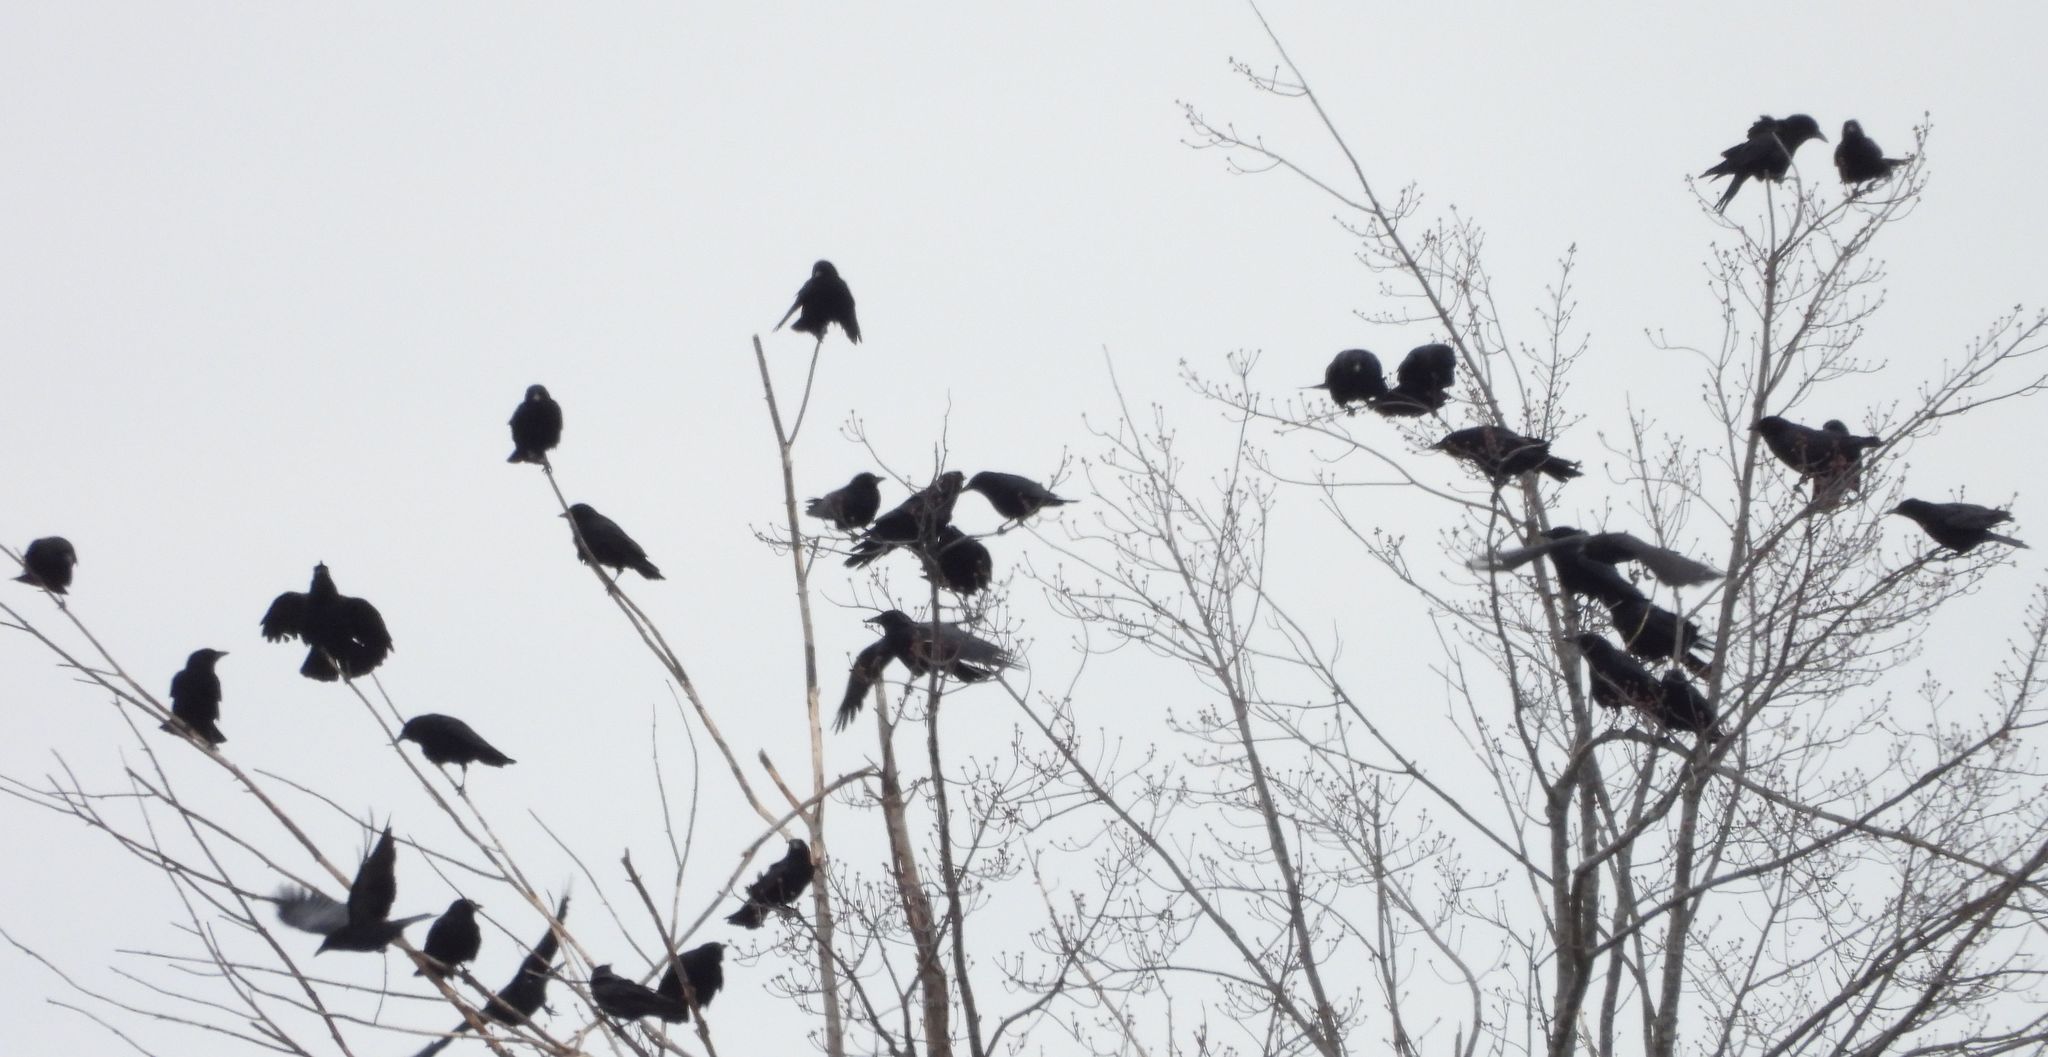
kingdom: Animalia
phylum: Chordata
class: Aves
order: Passeriformes
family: Corvidae
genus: Corvus
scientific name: Corvus brachyrhynchos
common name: American crow
